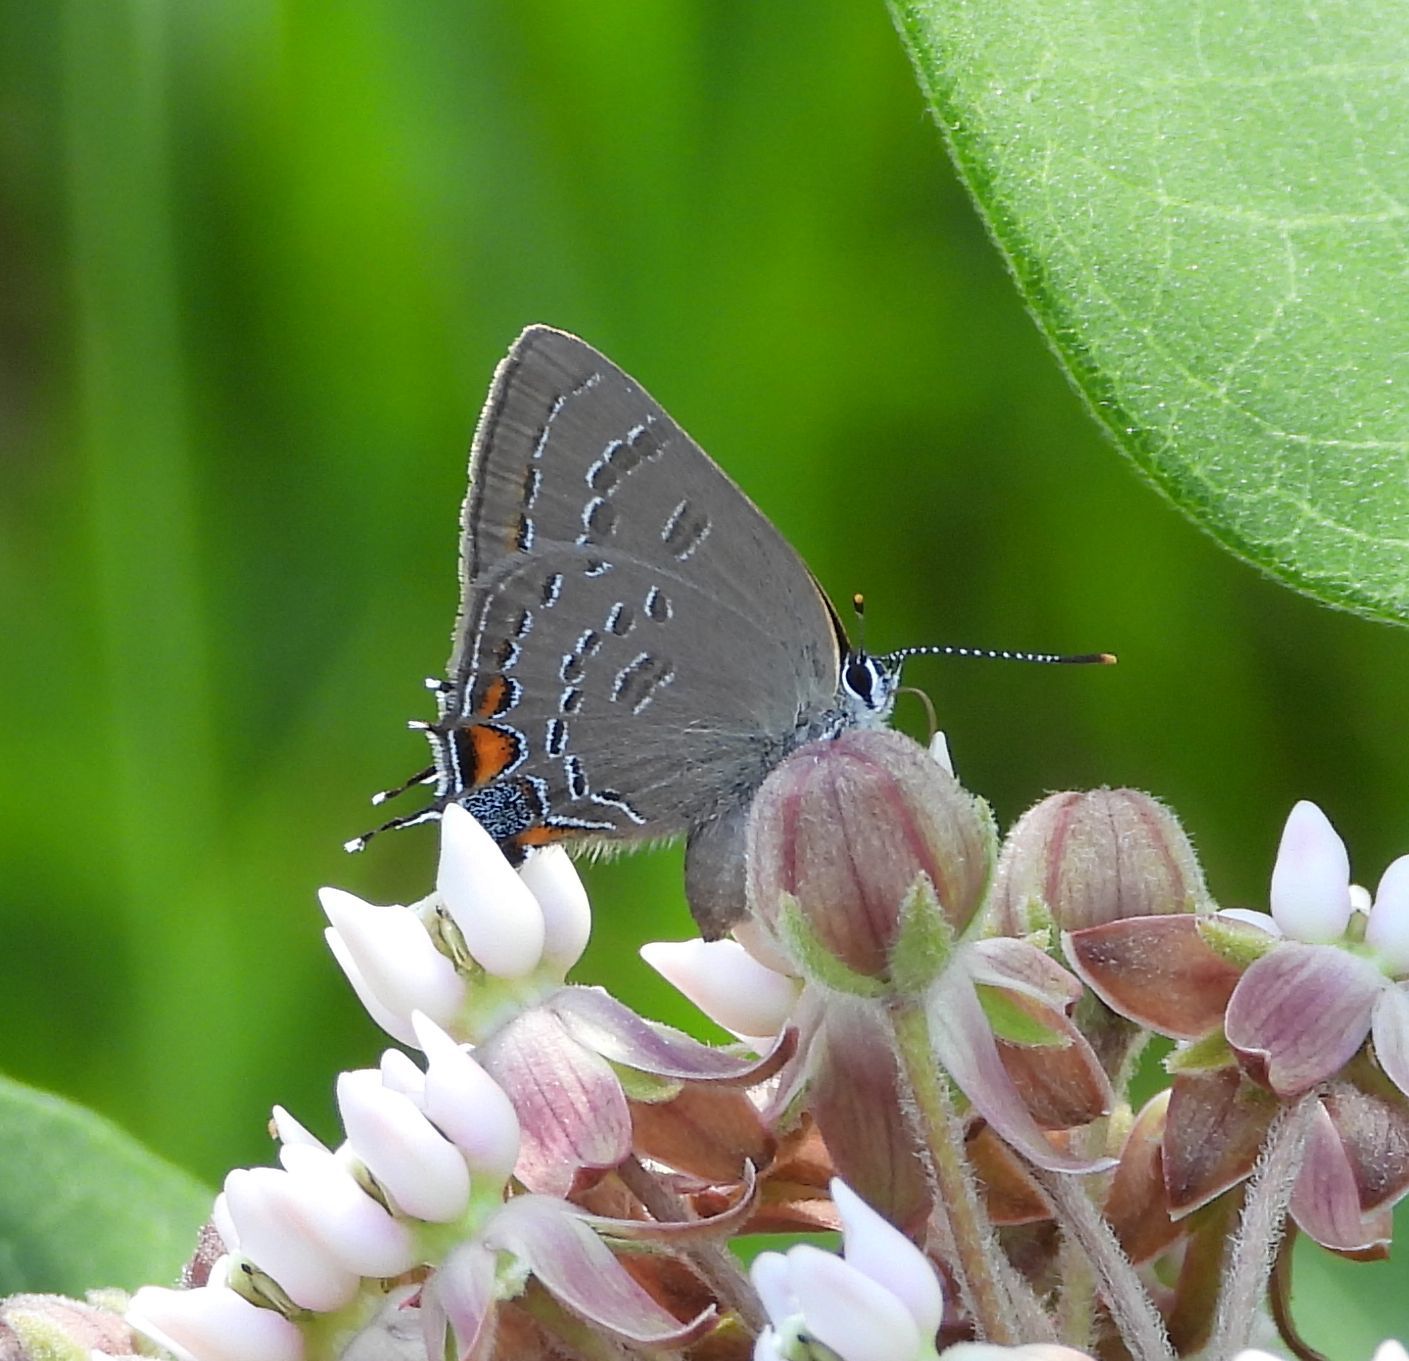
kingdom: Animalia
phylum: Arthropoda
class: Insecta
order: Lepidoptera
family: Lycaenidae
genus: Satyrium
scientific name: Satyrium calanus
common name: Banded hairstreak
